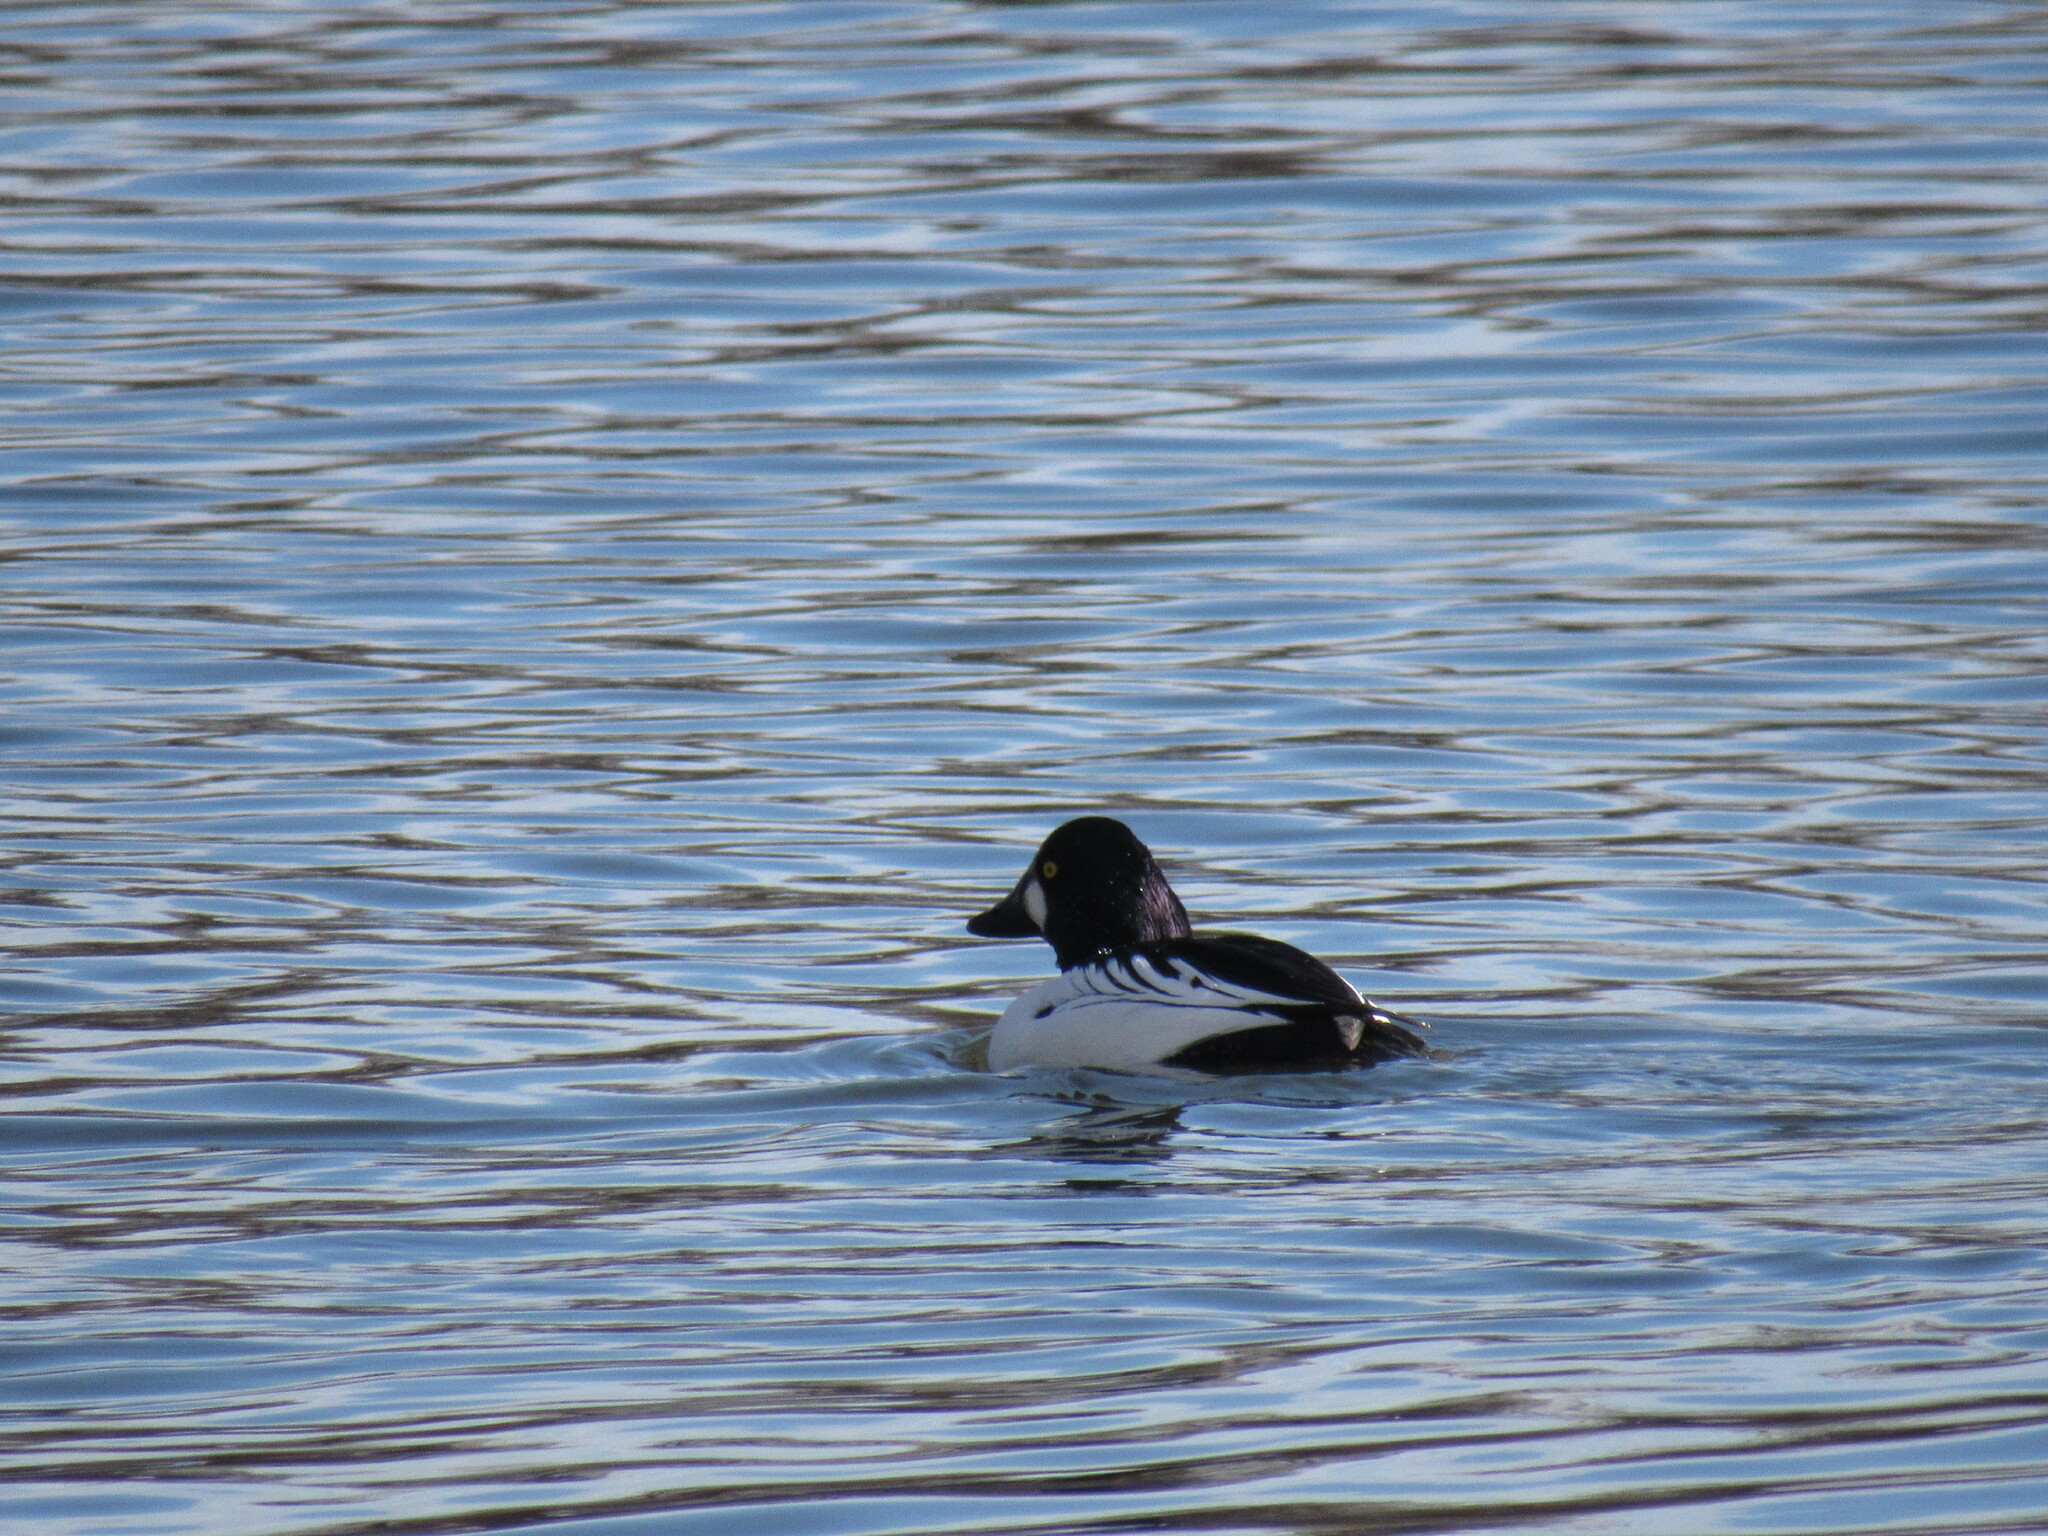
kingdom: Animalia
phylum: Chordata
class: Aves
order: Anseriformes
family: Anatidae
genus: Bucephala
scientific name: Bucephala clangula
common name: Common goldeneye
